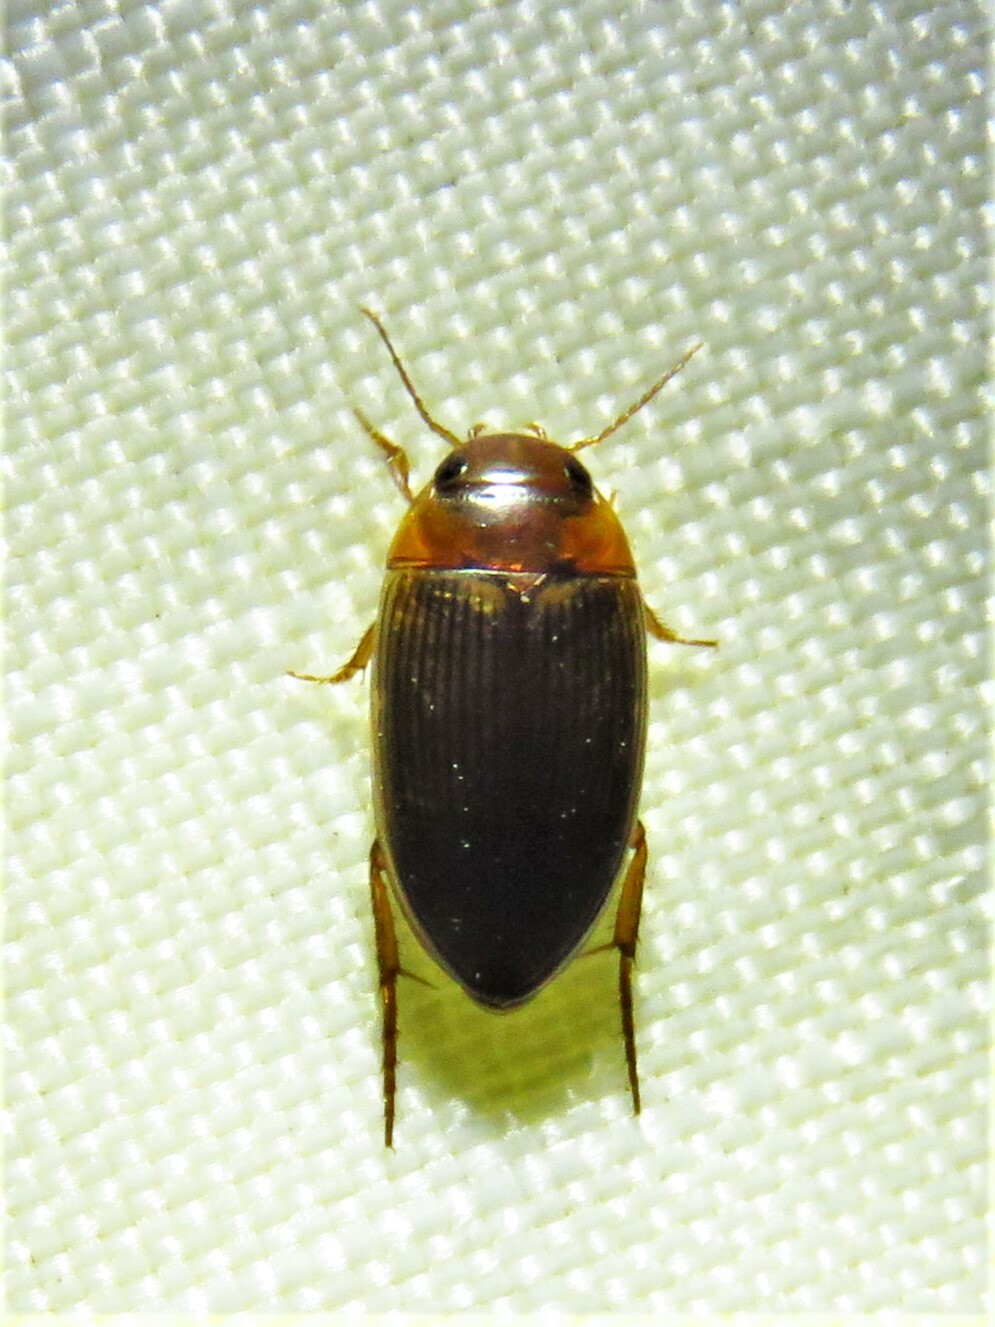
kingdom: Animalia
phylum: Arthropoda
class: Insecta
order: Coleoptera
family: Dytiscidae
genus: Copelatus
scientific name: Copelatus glyphicus
